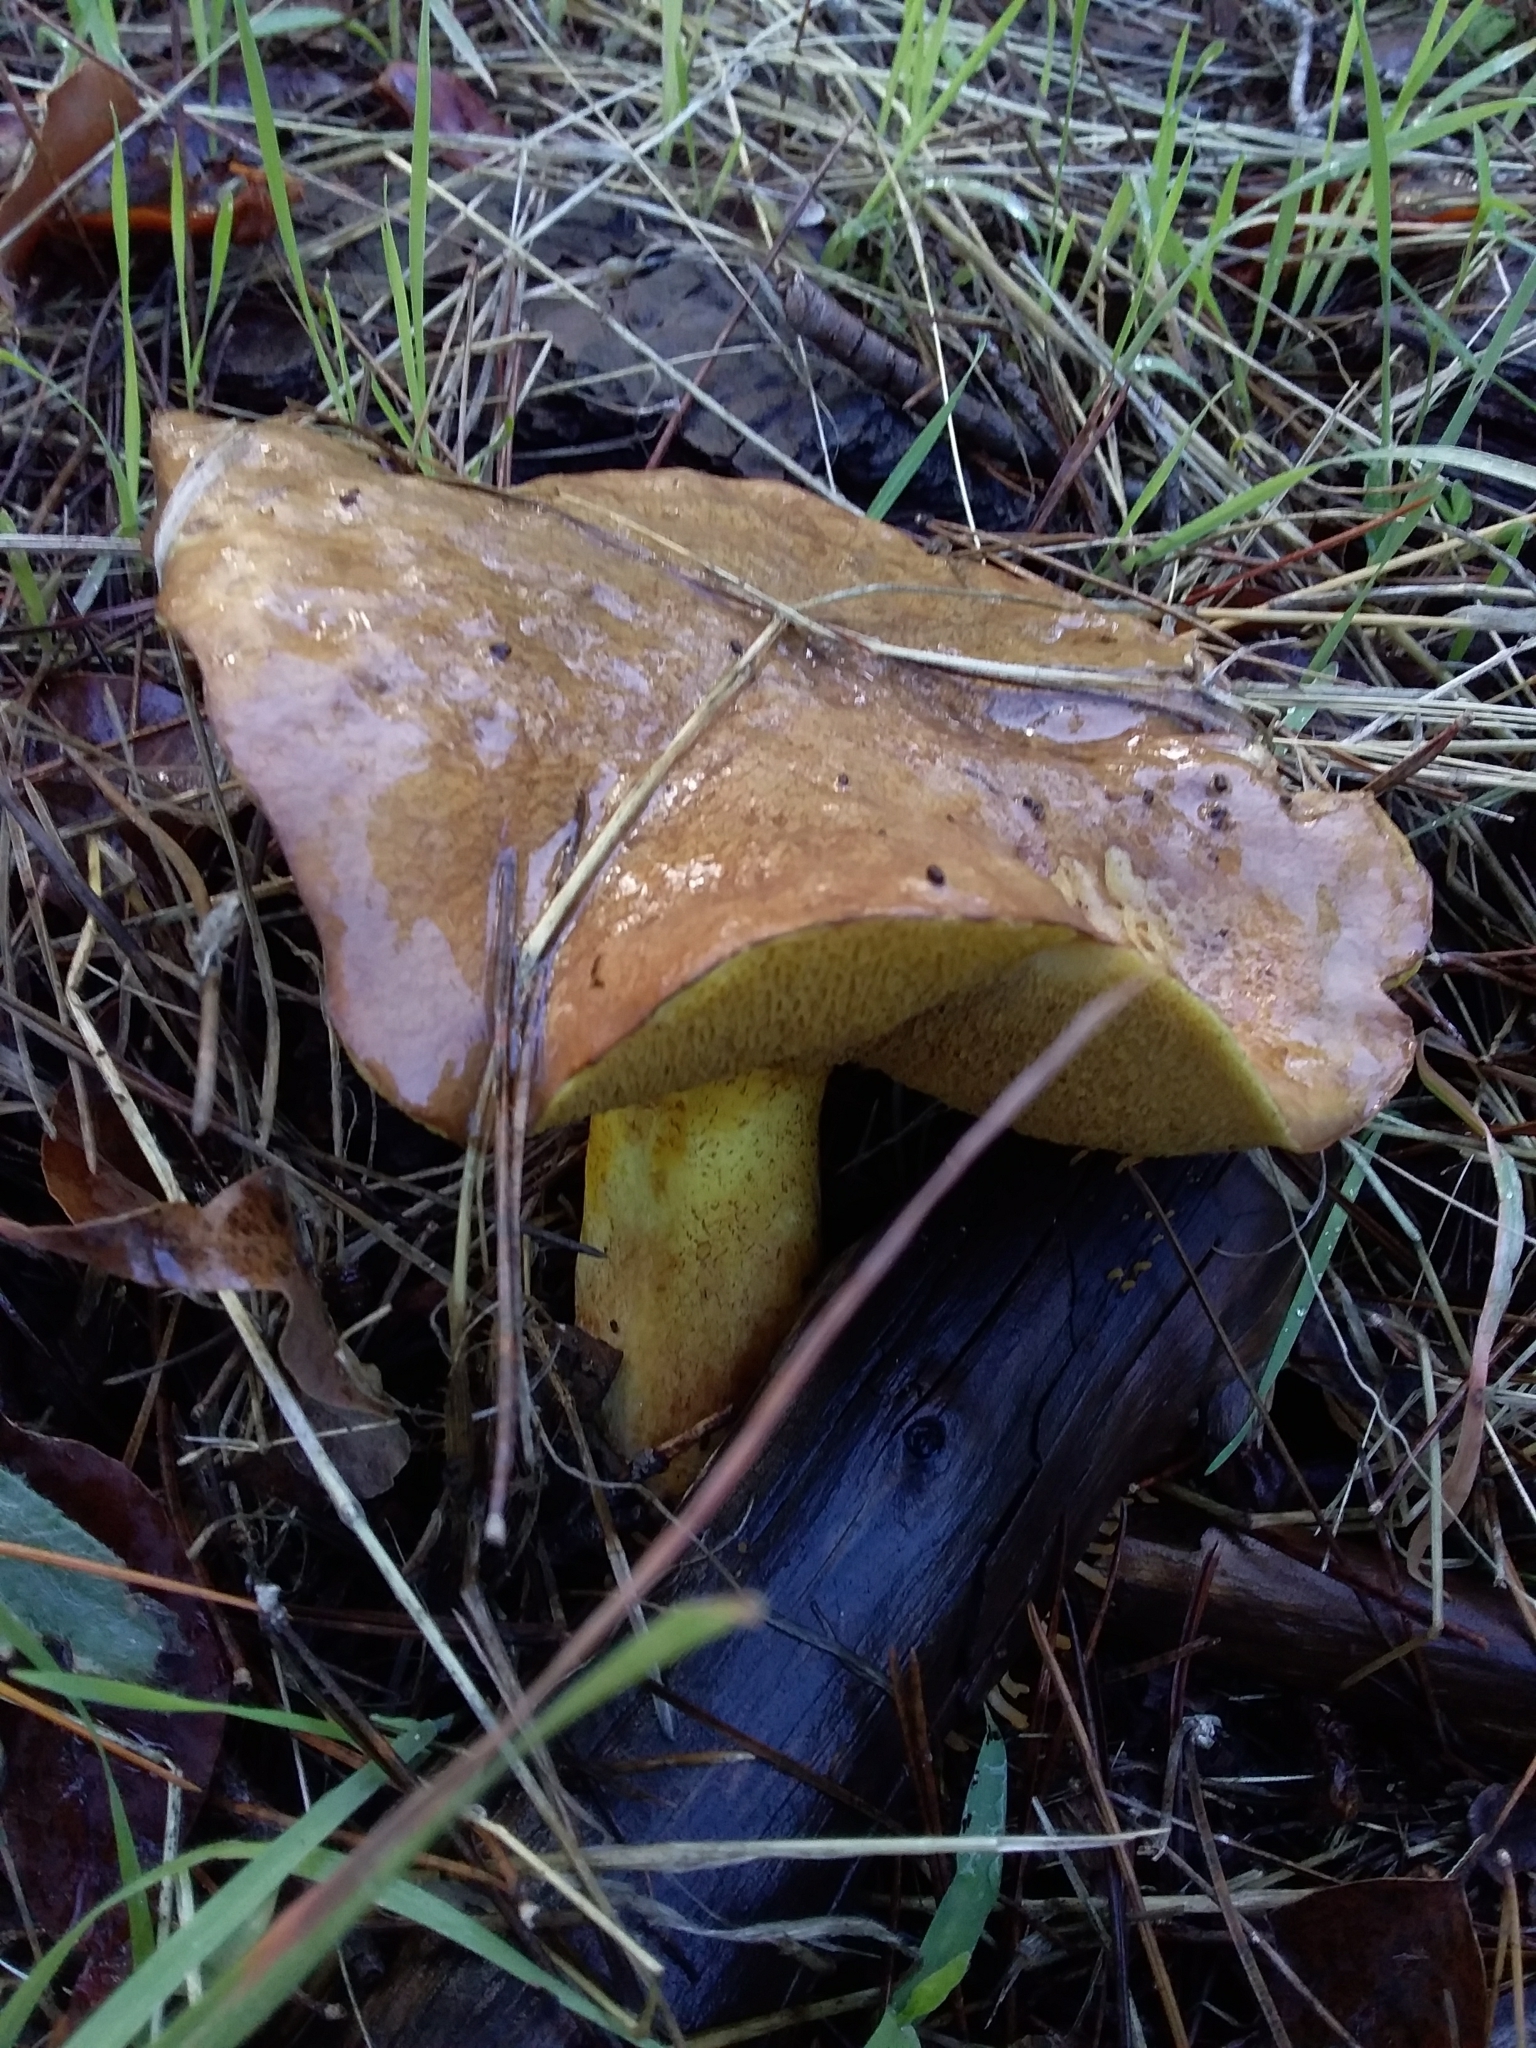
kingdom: Fungi
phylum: Basidiomycota
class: Agaricomycetes
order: Boletales
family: Suillaceae
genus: Suillus
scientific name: Suillus granulatus
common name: Weeping bolete
